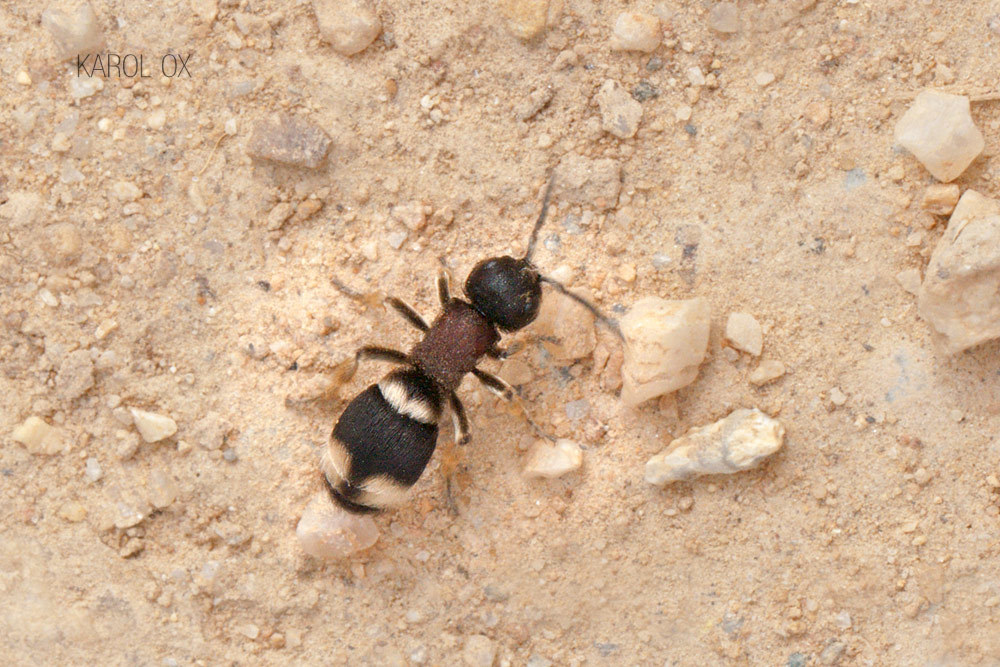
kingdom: Animalia
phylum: Arthropoda
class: Insecta
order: Hymenoptera
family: Mutillidae
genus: Mutilla
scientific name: Mutilla marginata
